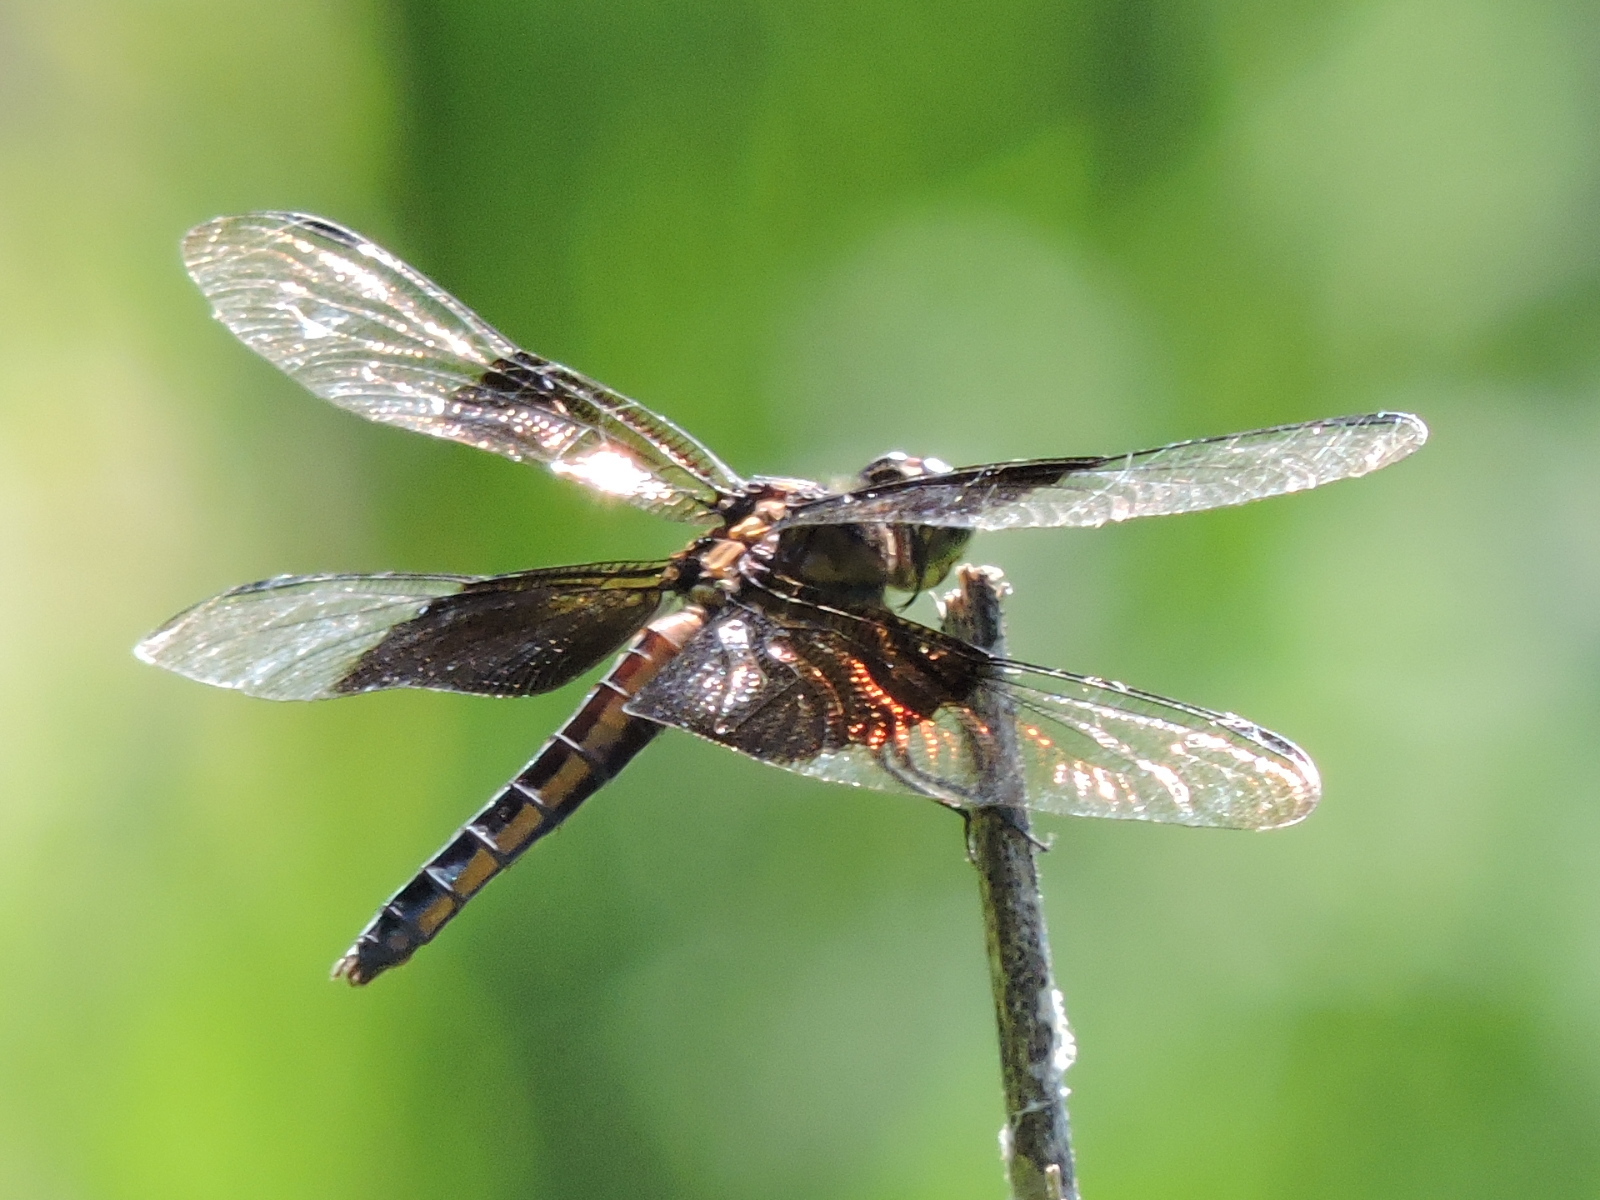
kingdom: Animalia
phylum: Arthropoda
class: Insecta
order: Odonata
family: Libellulidae
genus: Libellula
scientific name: Libellula luctuosa
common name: Widow skimmer
